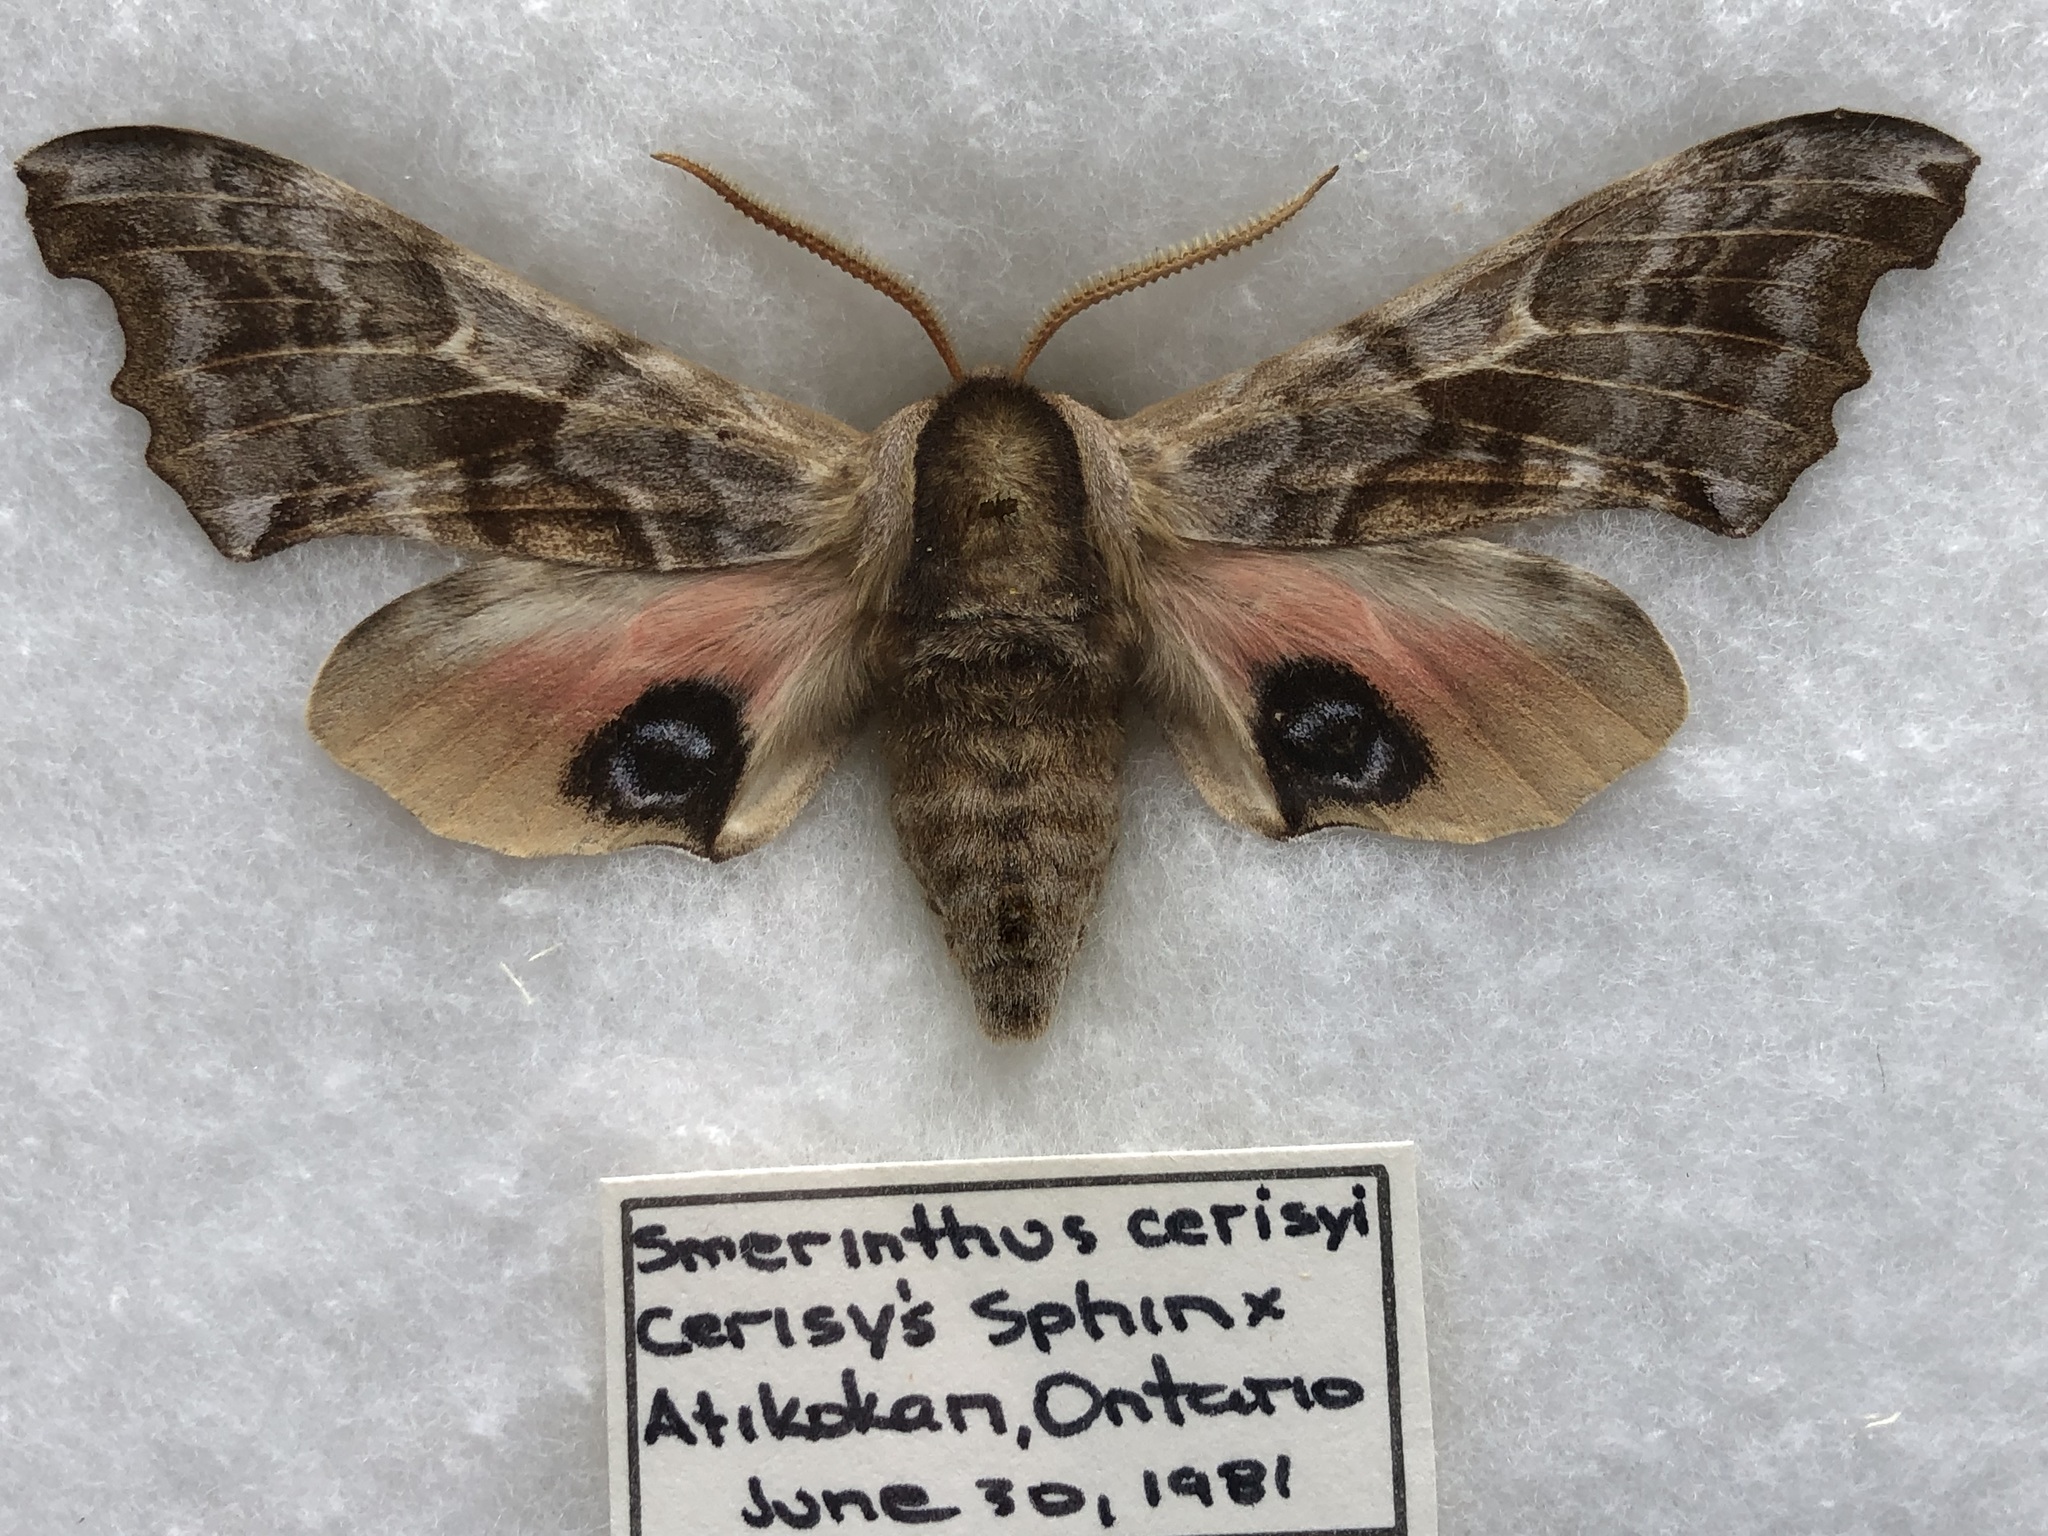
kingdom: Animalia
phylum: Arthropoda
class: Insecta
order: Lepidoptera
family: Sphingidae
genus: Smerinthus
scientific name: Smerinthus cerisyi
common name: Cerisy's sphinx moth
